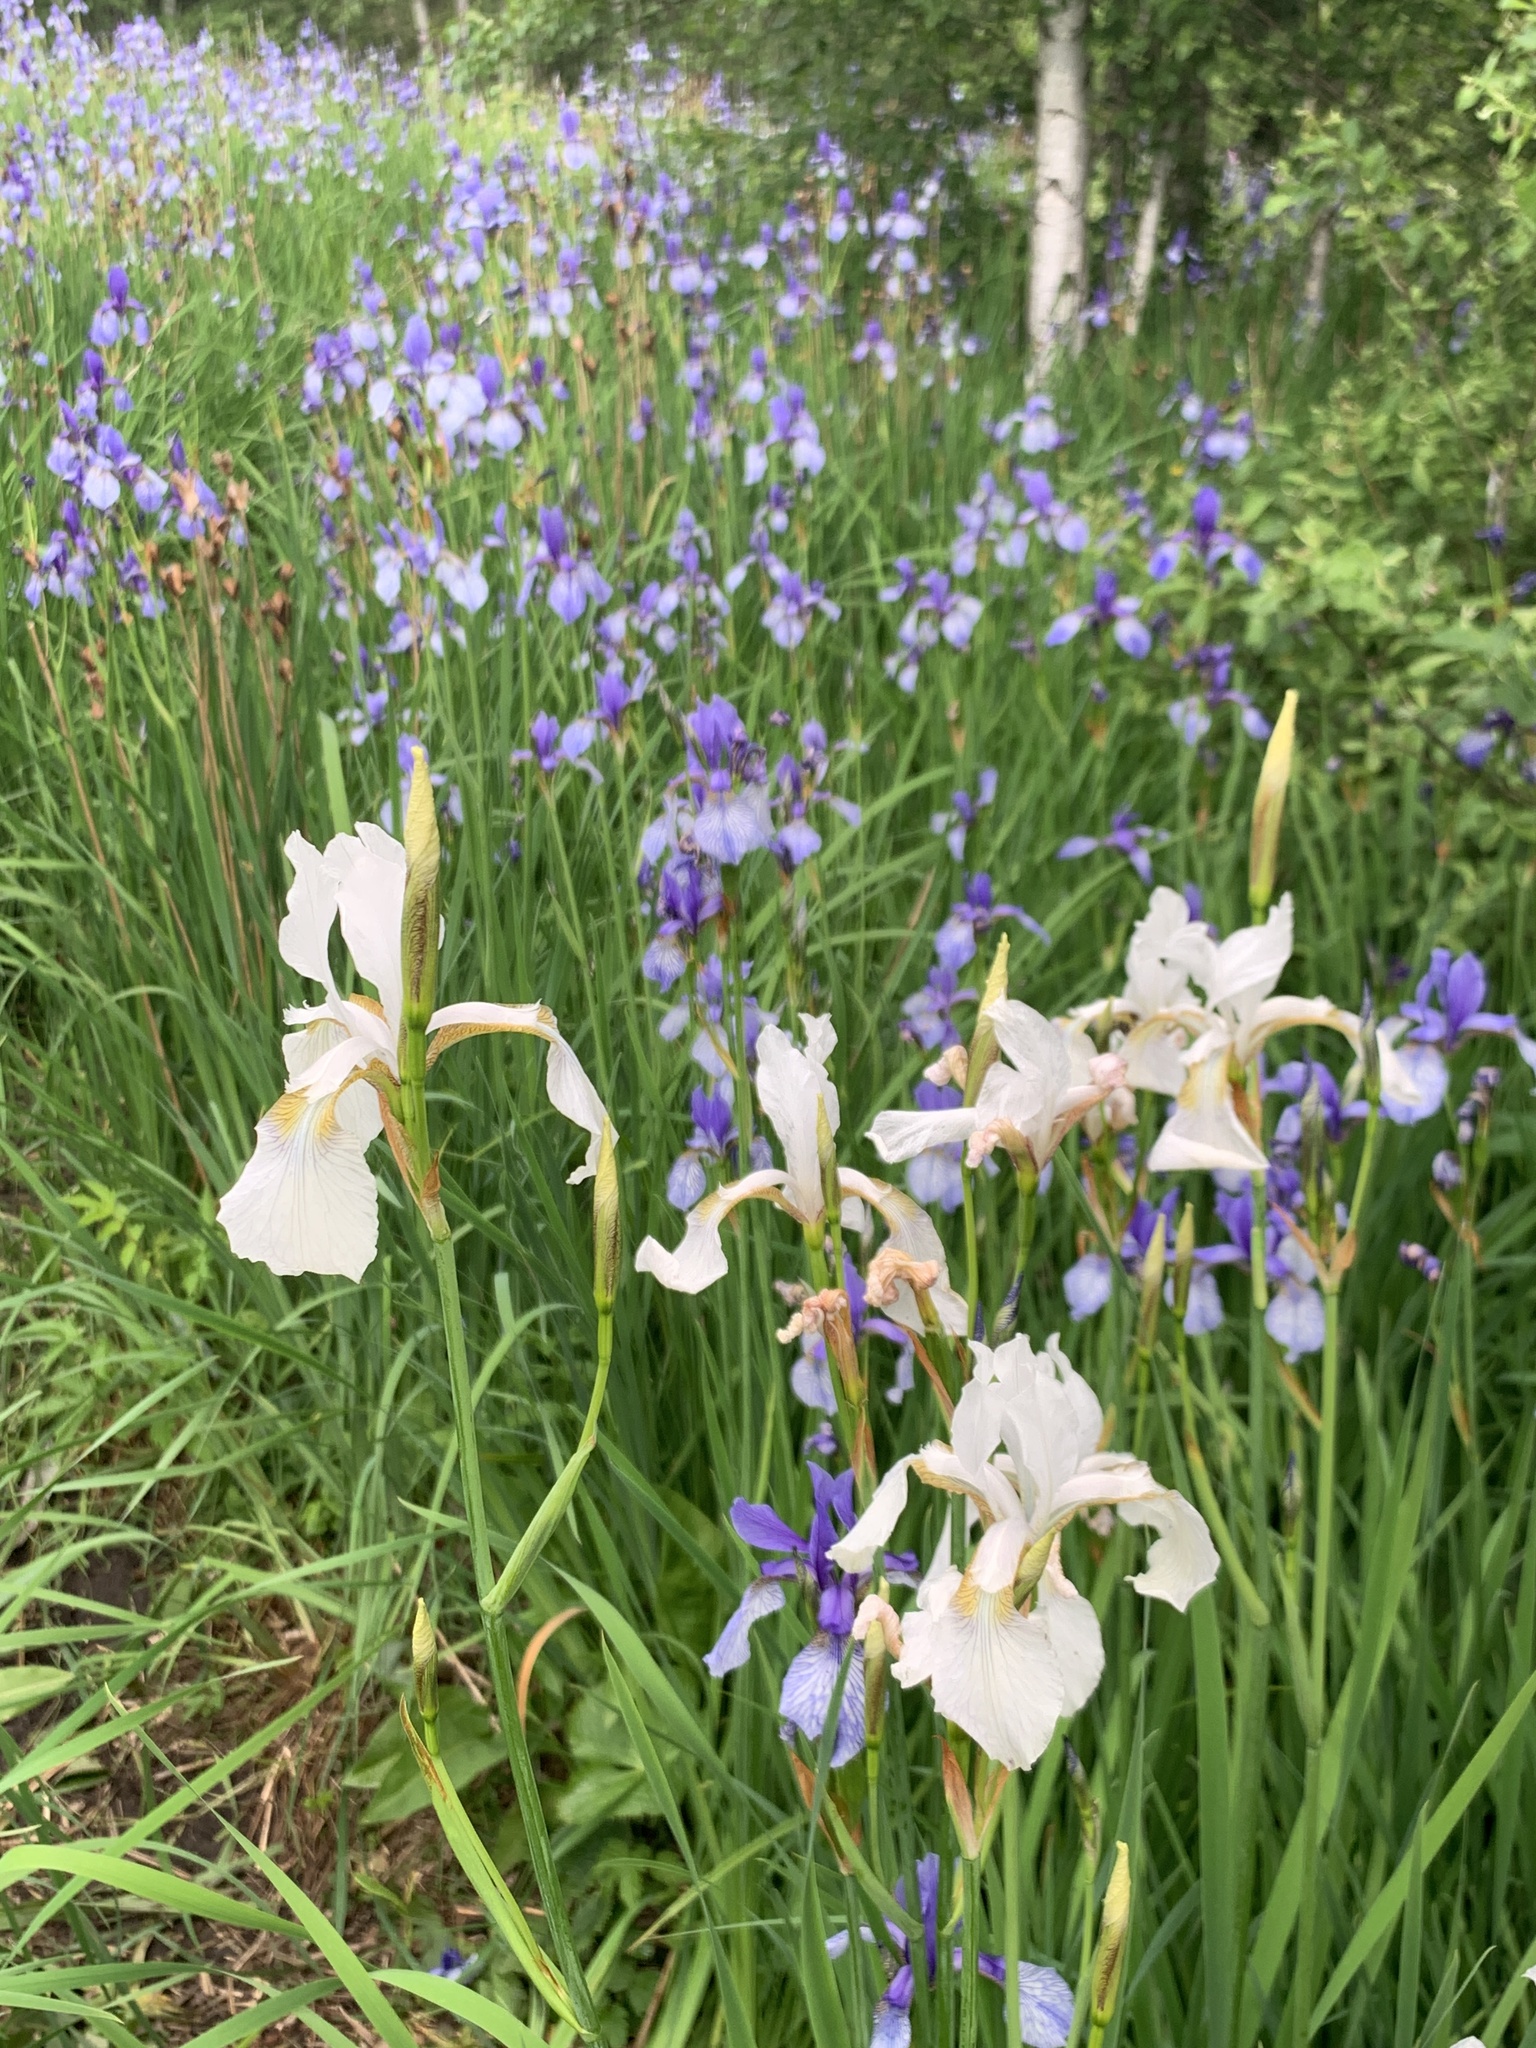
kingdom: Plantae
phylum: Tracheophyta
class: Liliopsida
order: Asparagales
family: Iridaceae
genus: Iris
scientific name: Iris sibirica
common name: Siberian iris
